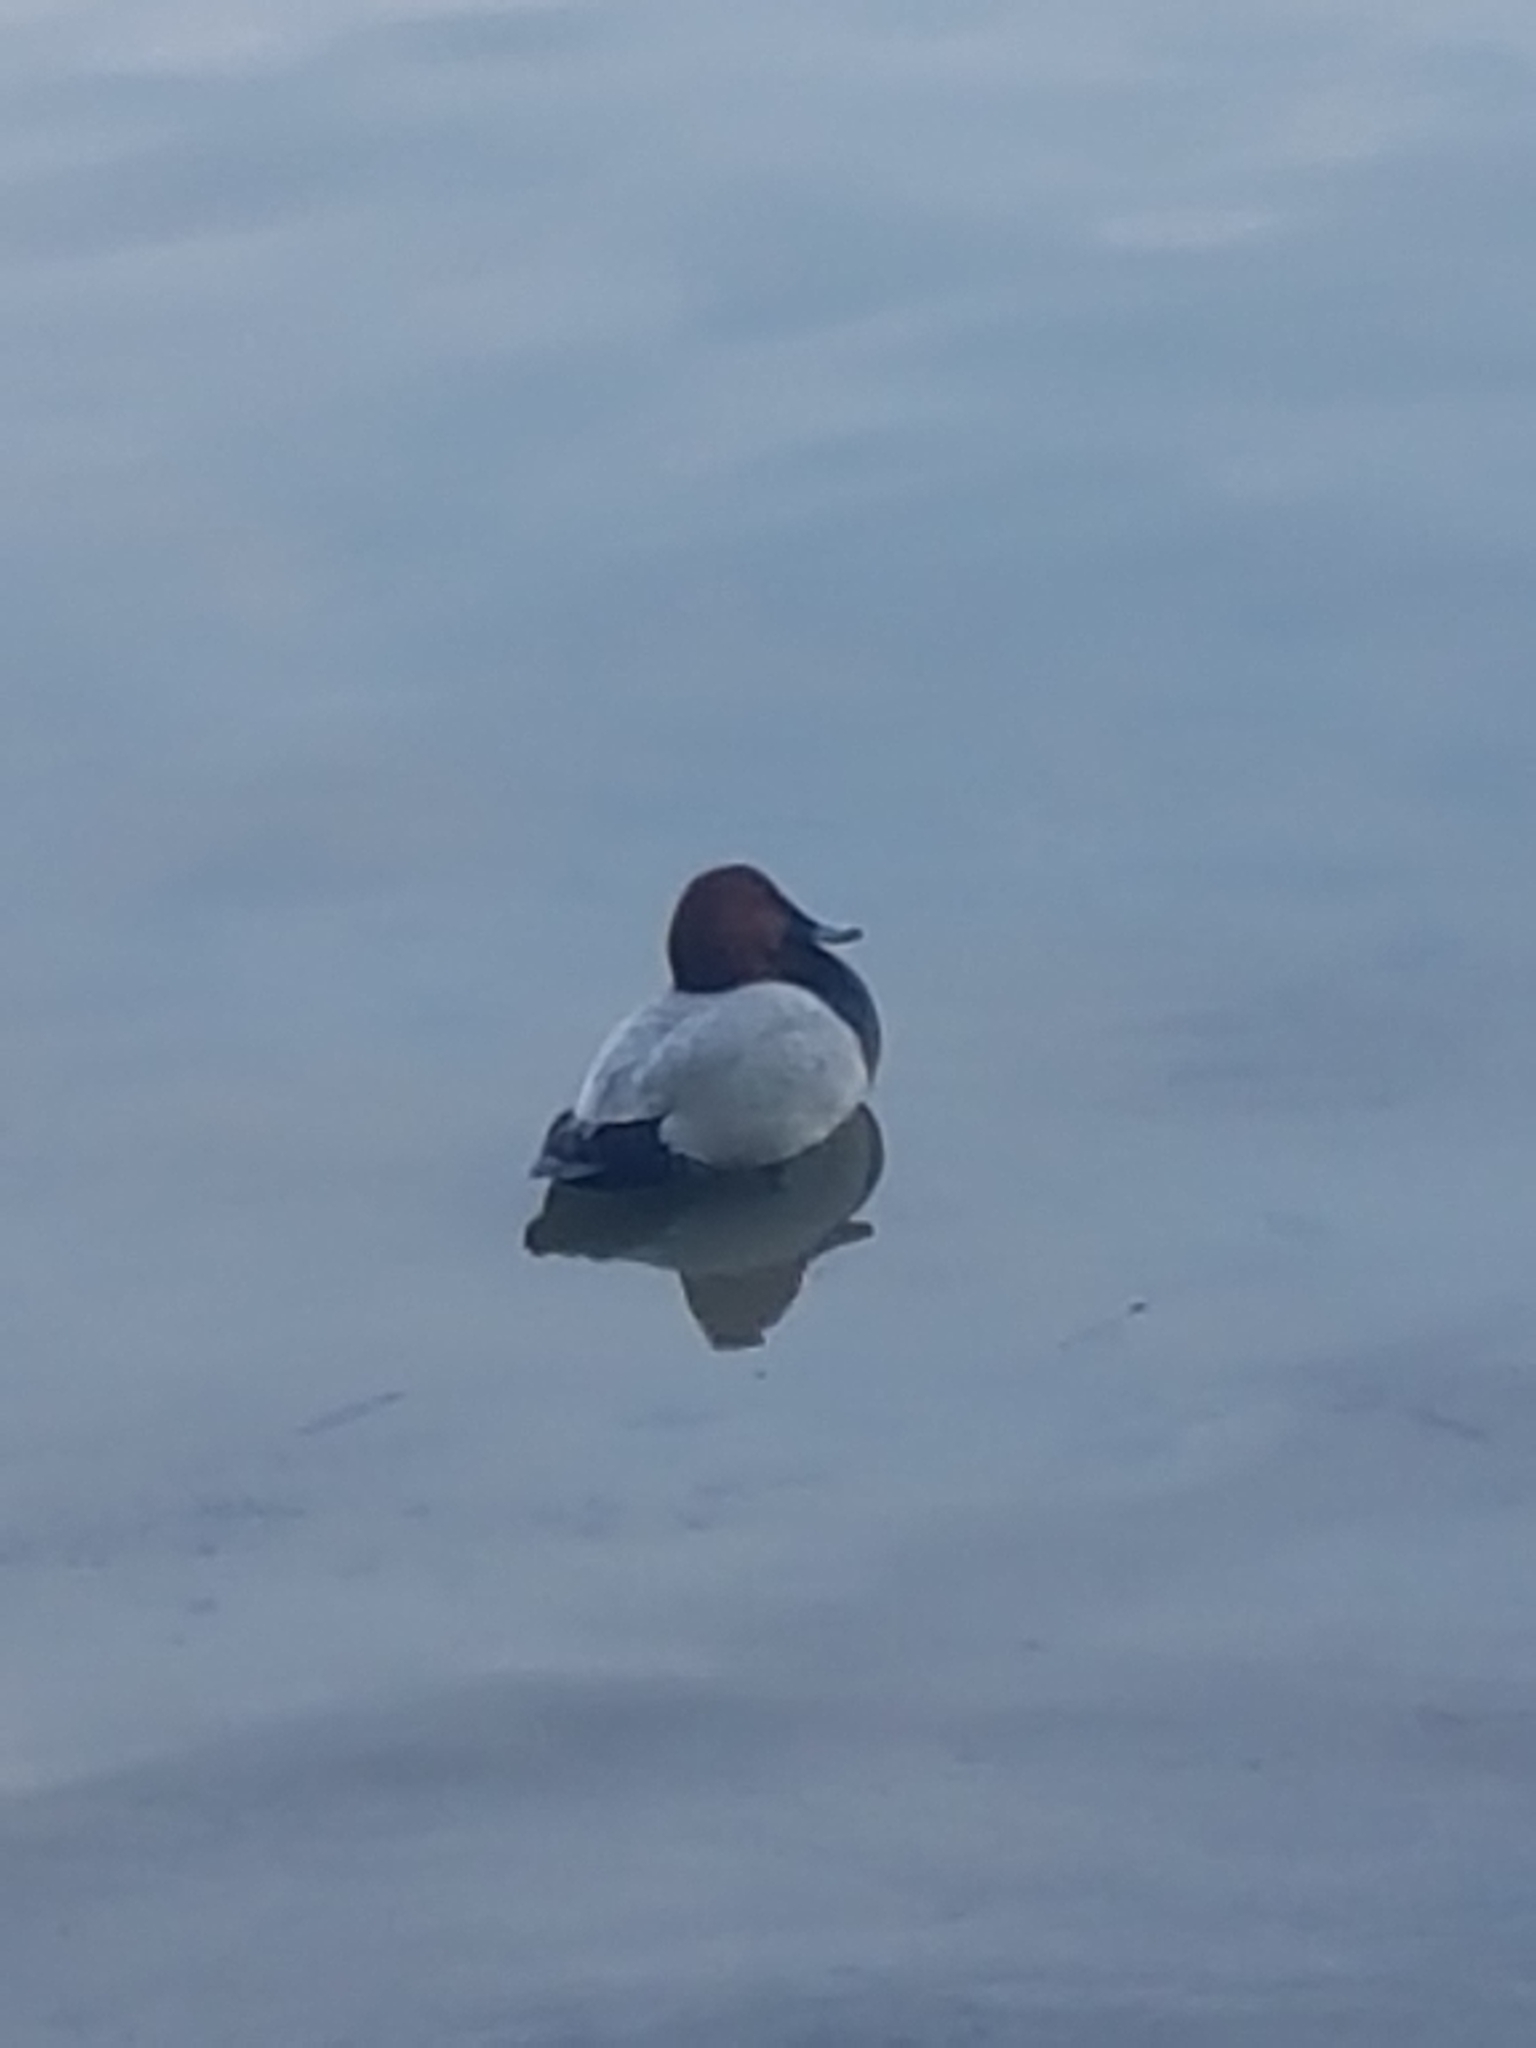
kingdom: Animalia
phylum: Chordata
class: Aves
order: Anseriformes
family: Anatidae
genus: Aythya
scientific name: Aythya ferina
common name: Common pochard
